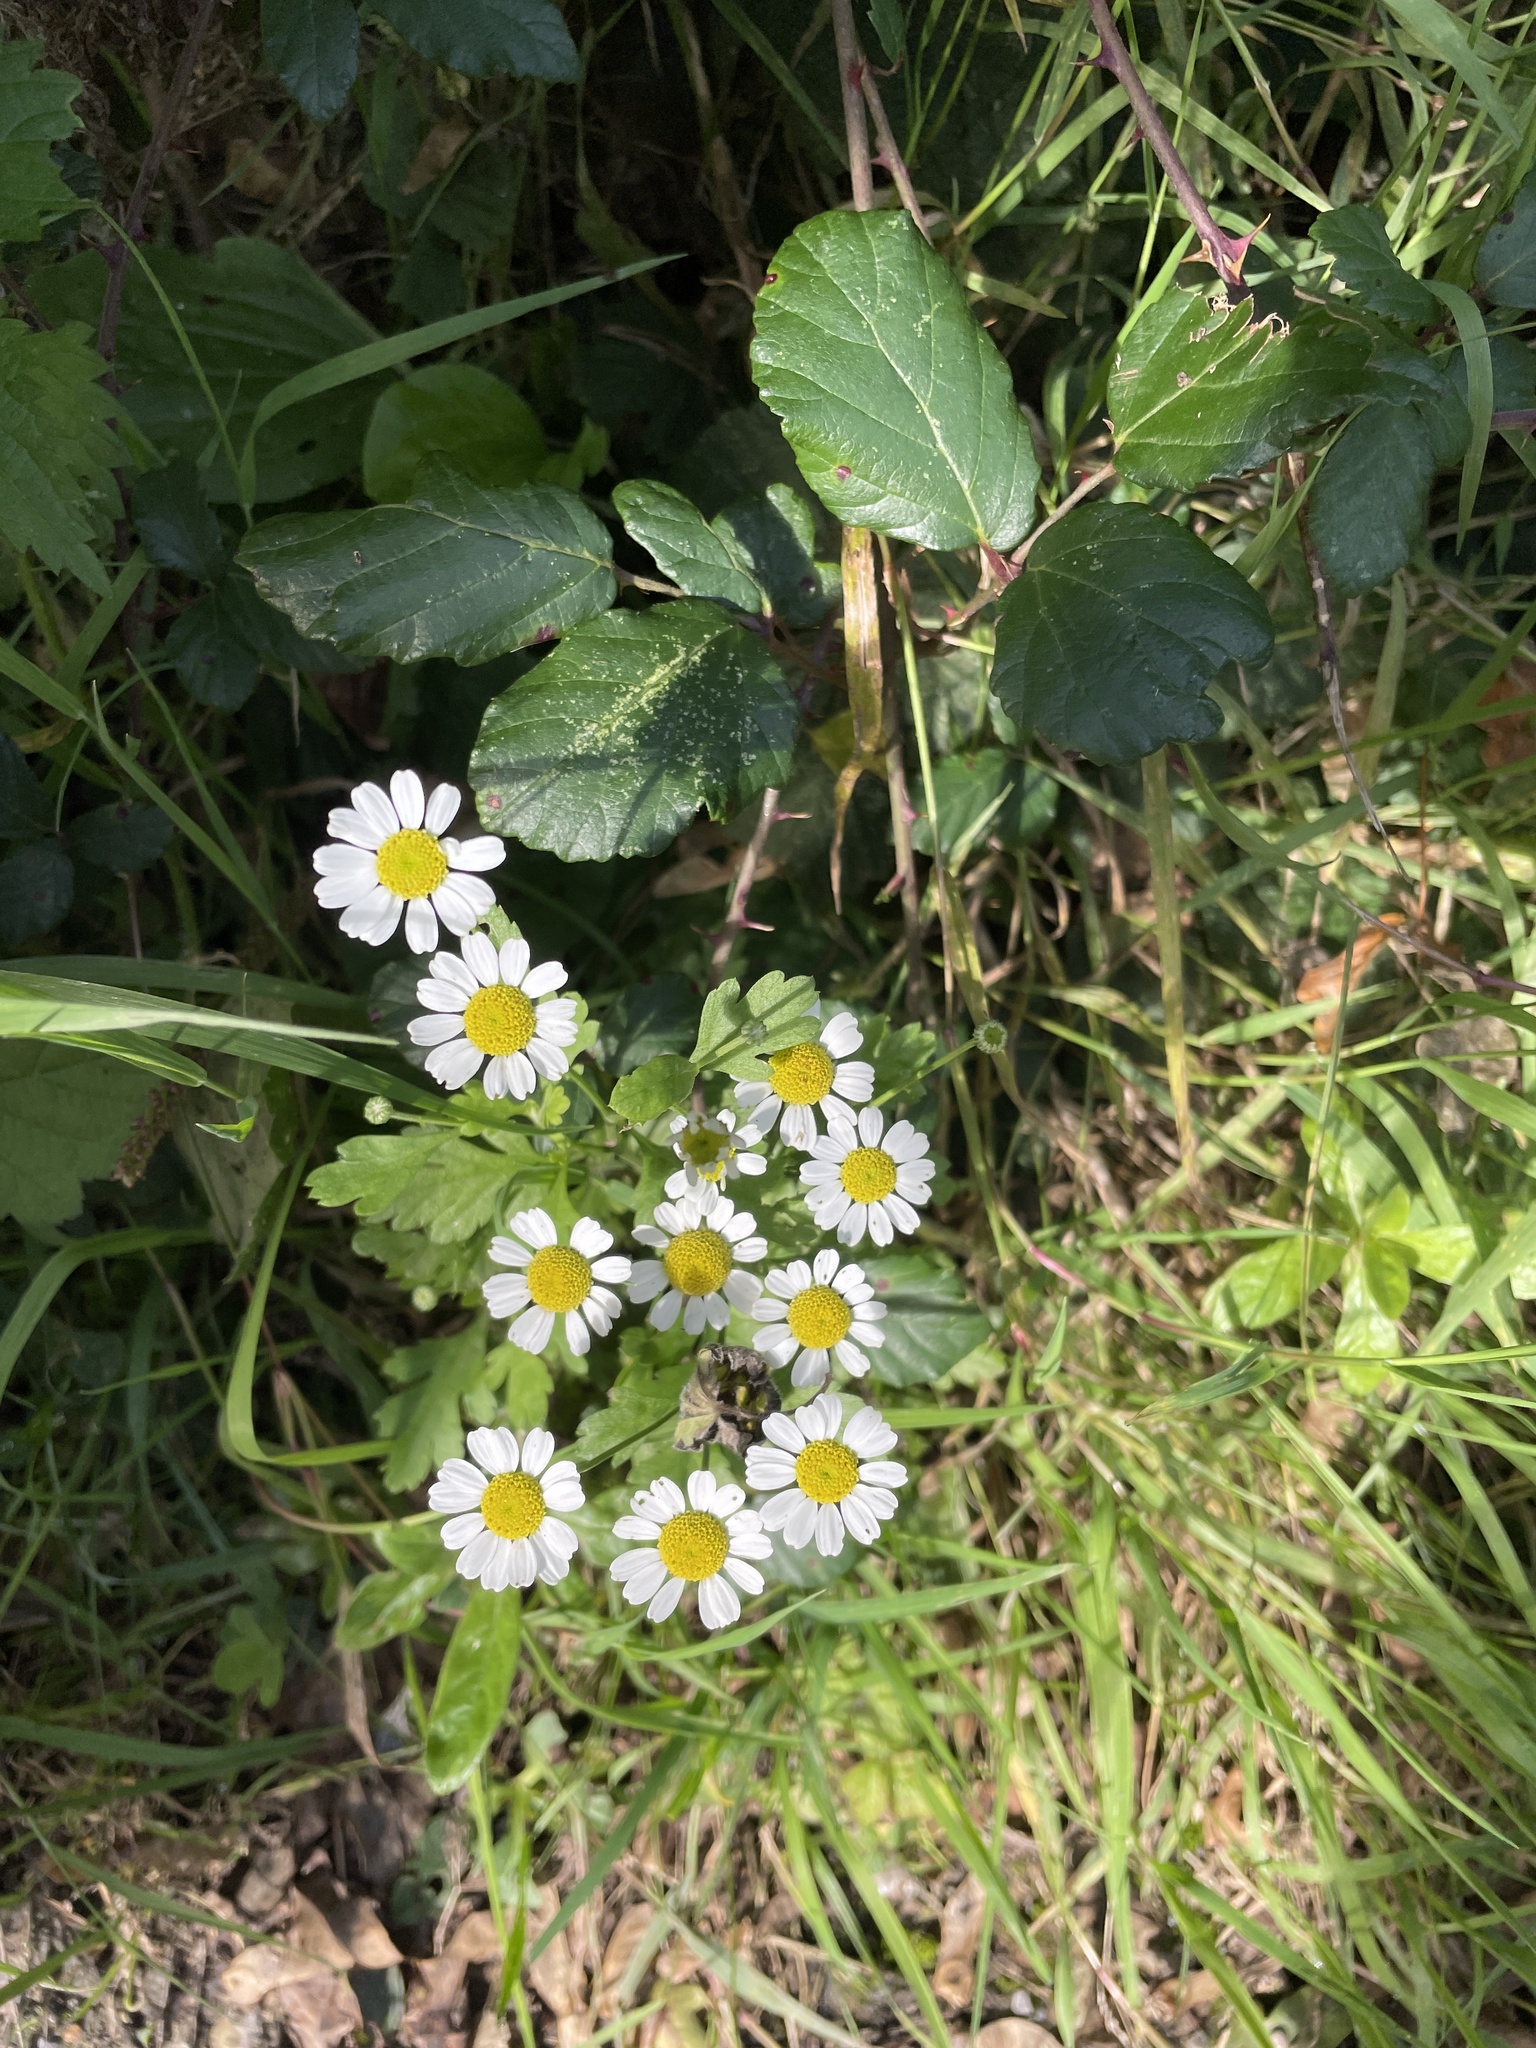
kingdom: Plantae
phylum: Tracheophyta
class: Magnoliopsida
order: Asterales
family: Asteraceae
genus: Tanacetum
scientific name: Tanacetum parthenium
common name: Feverfew
